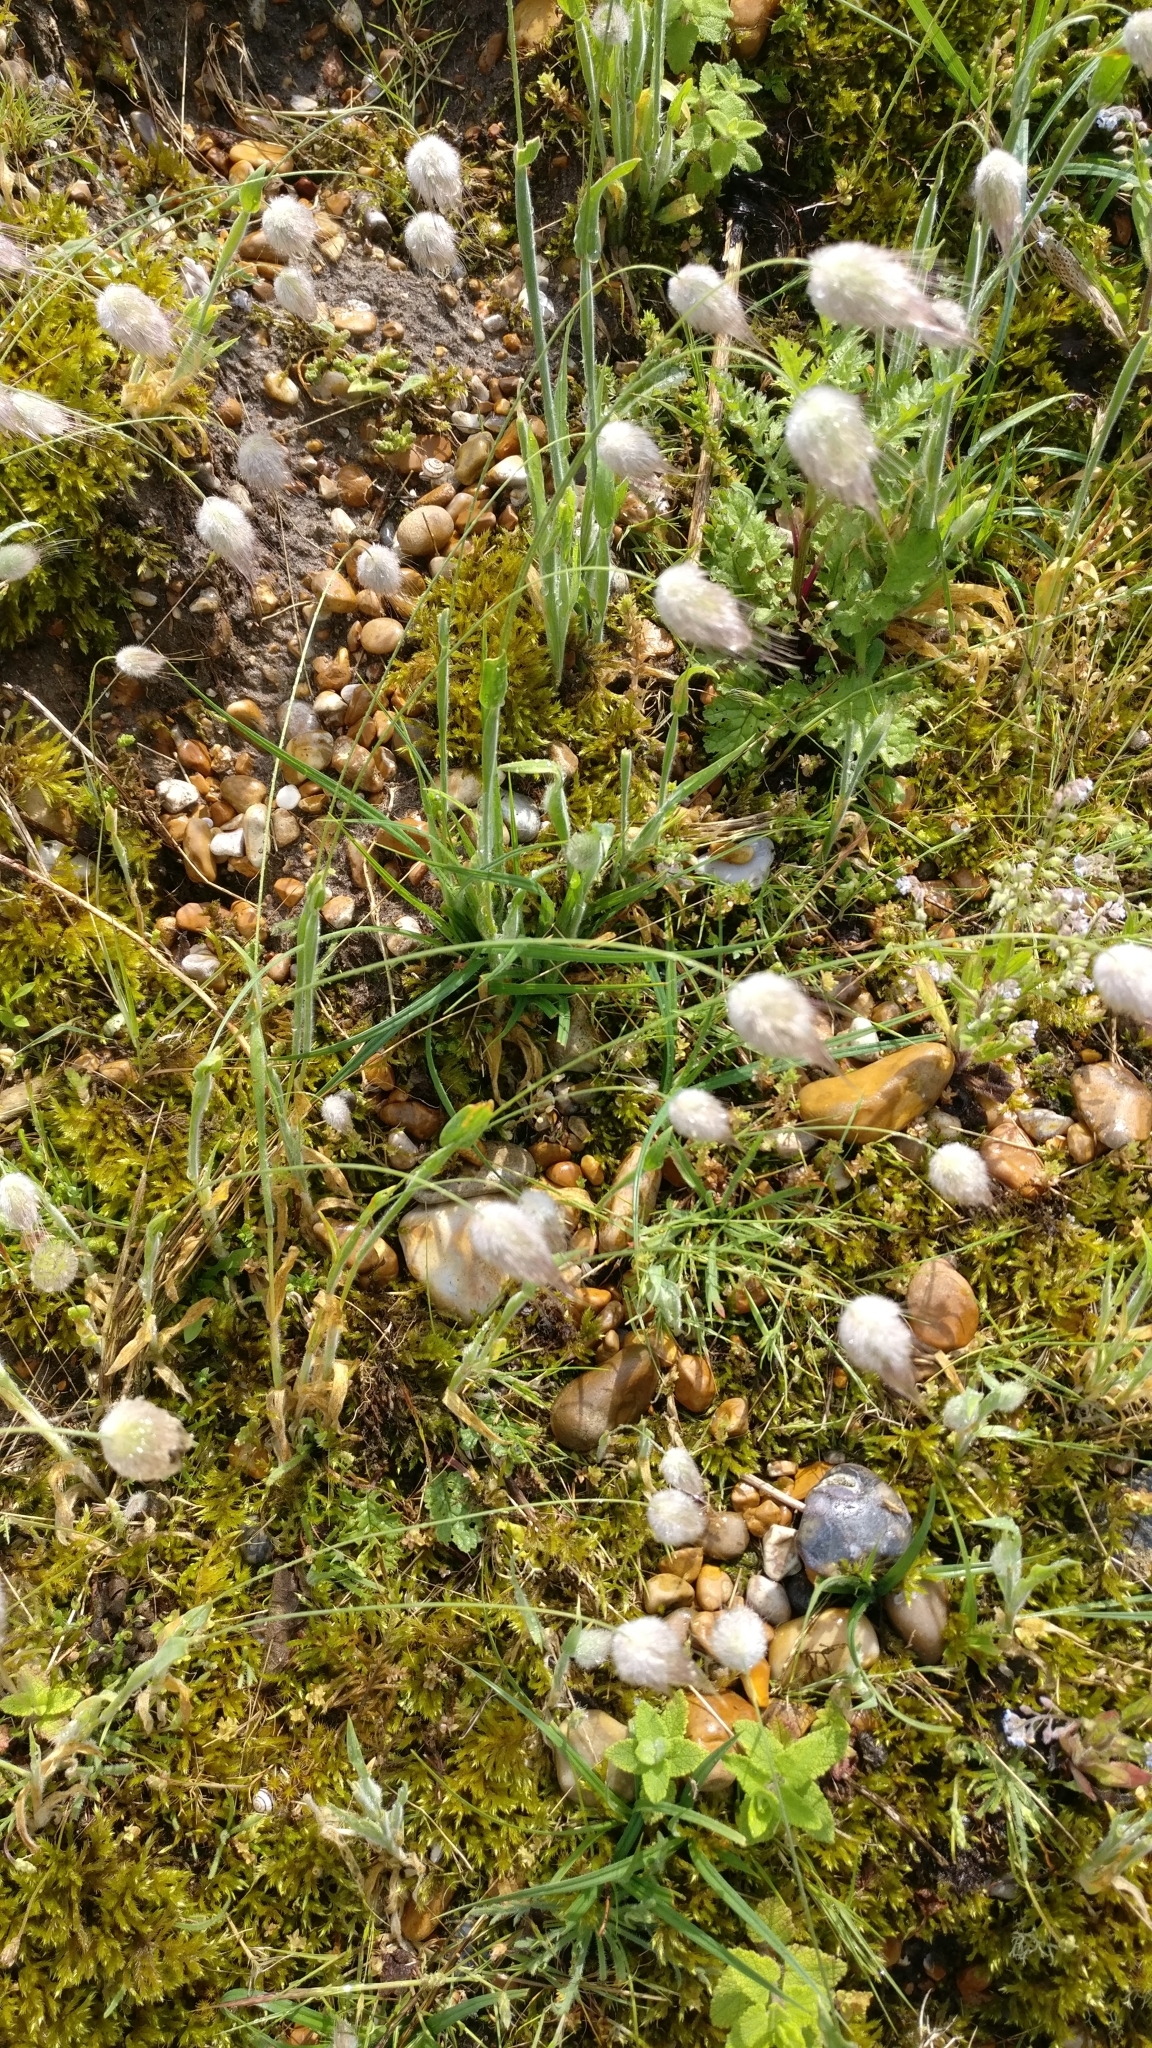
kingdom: Plantae
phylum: Tracheophyta
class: Liliopsida
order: Poales
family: Poaceae
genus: Lagurus
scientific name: Lagurus ovatus
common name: Hare's-tail
